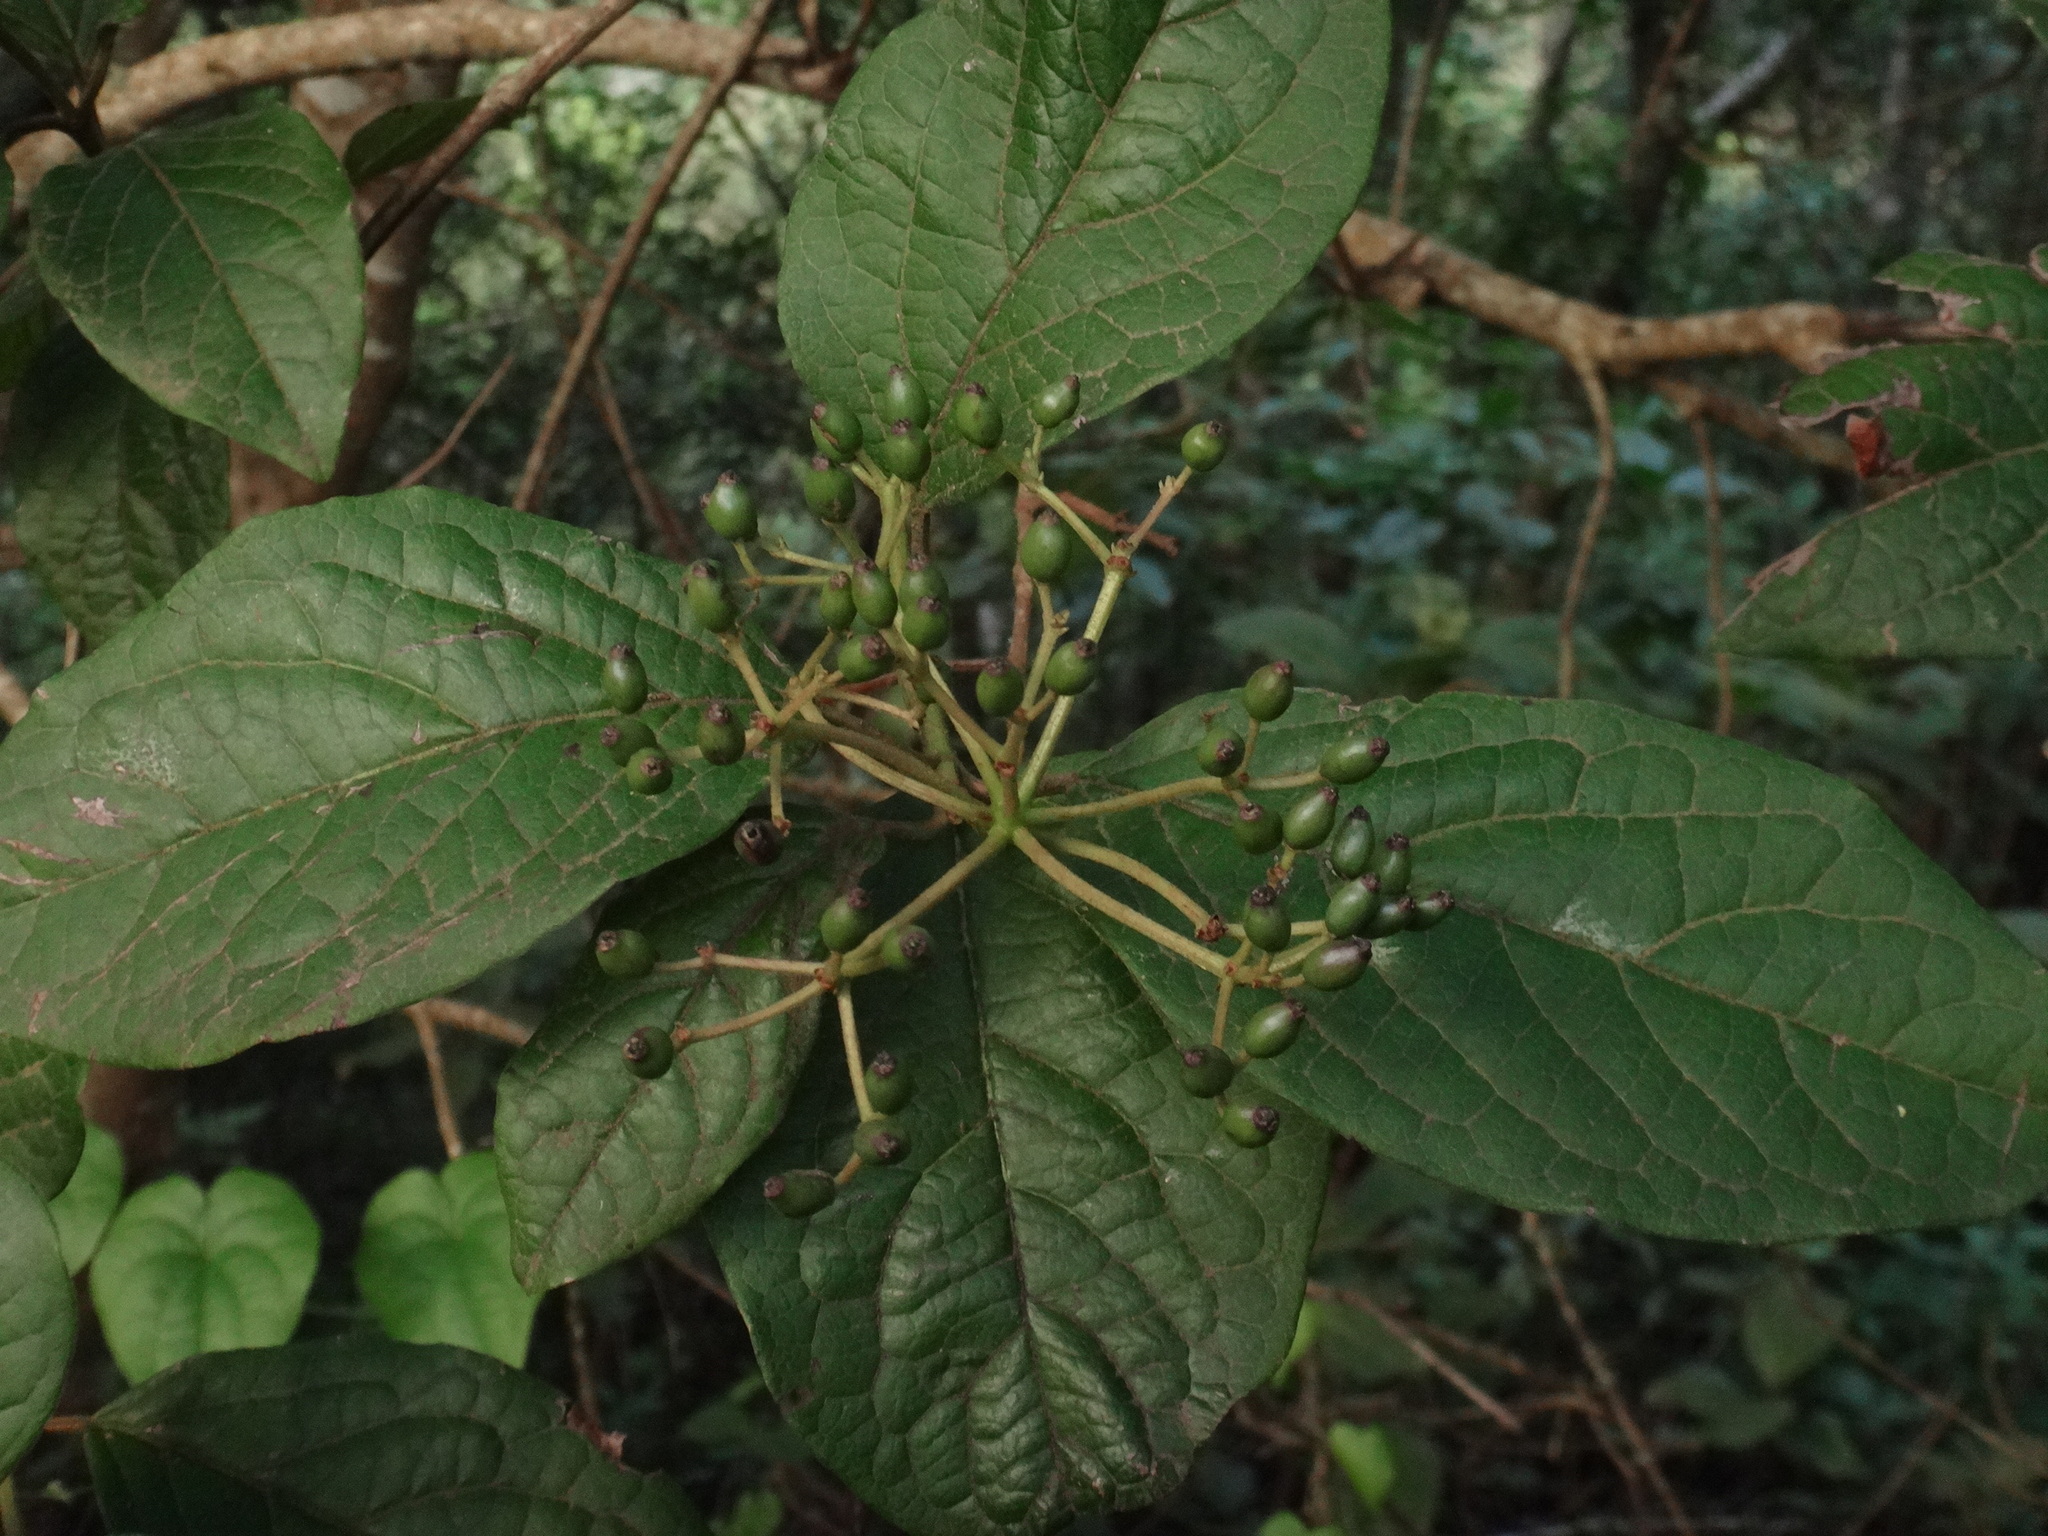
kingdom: Plantae
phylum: Tracheophyta
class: Magnoliopsida
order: Dipsacales
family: Viburnaceae
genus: Viburnum
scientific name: Viburnum rugosum
